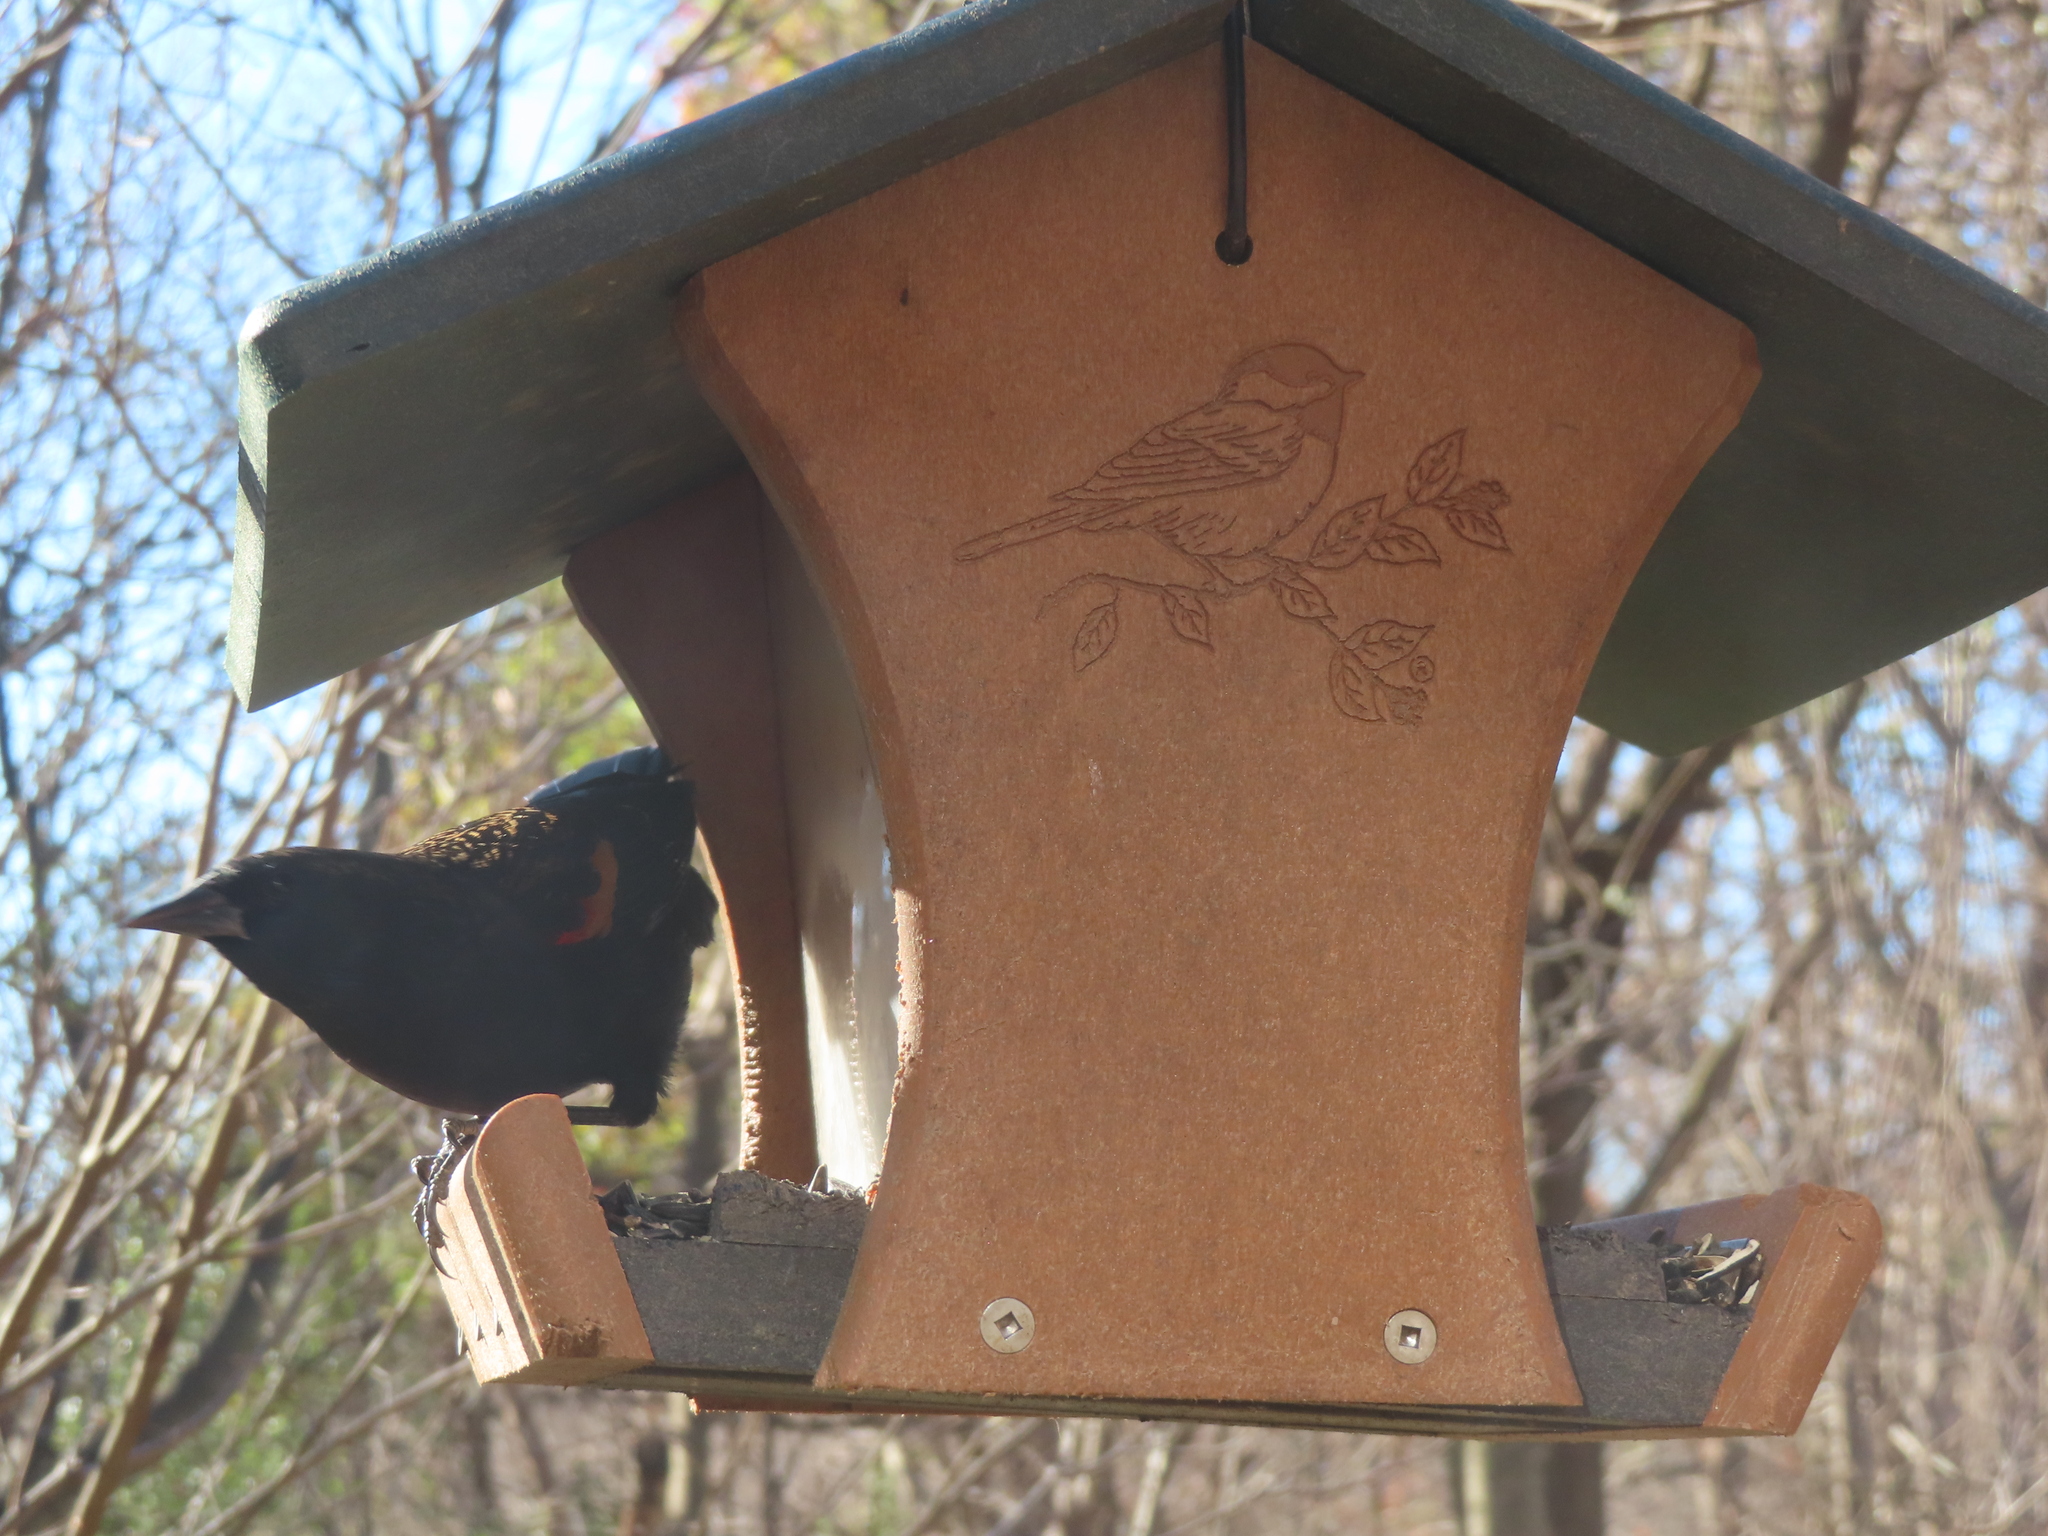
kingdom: Animalia
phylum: Chordata
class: Aves
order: Passeriformes
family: Icteridae
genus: Agelaius
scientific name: Agelaius phoeniceus
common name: Red-winged blackbird
